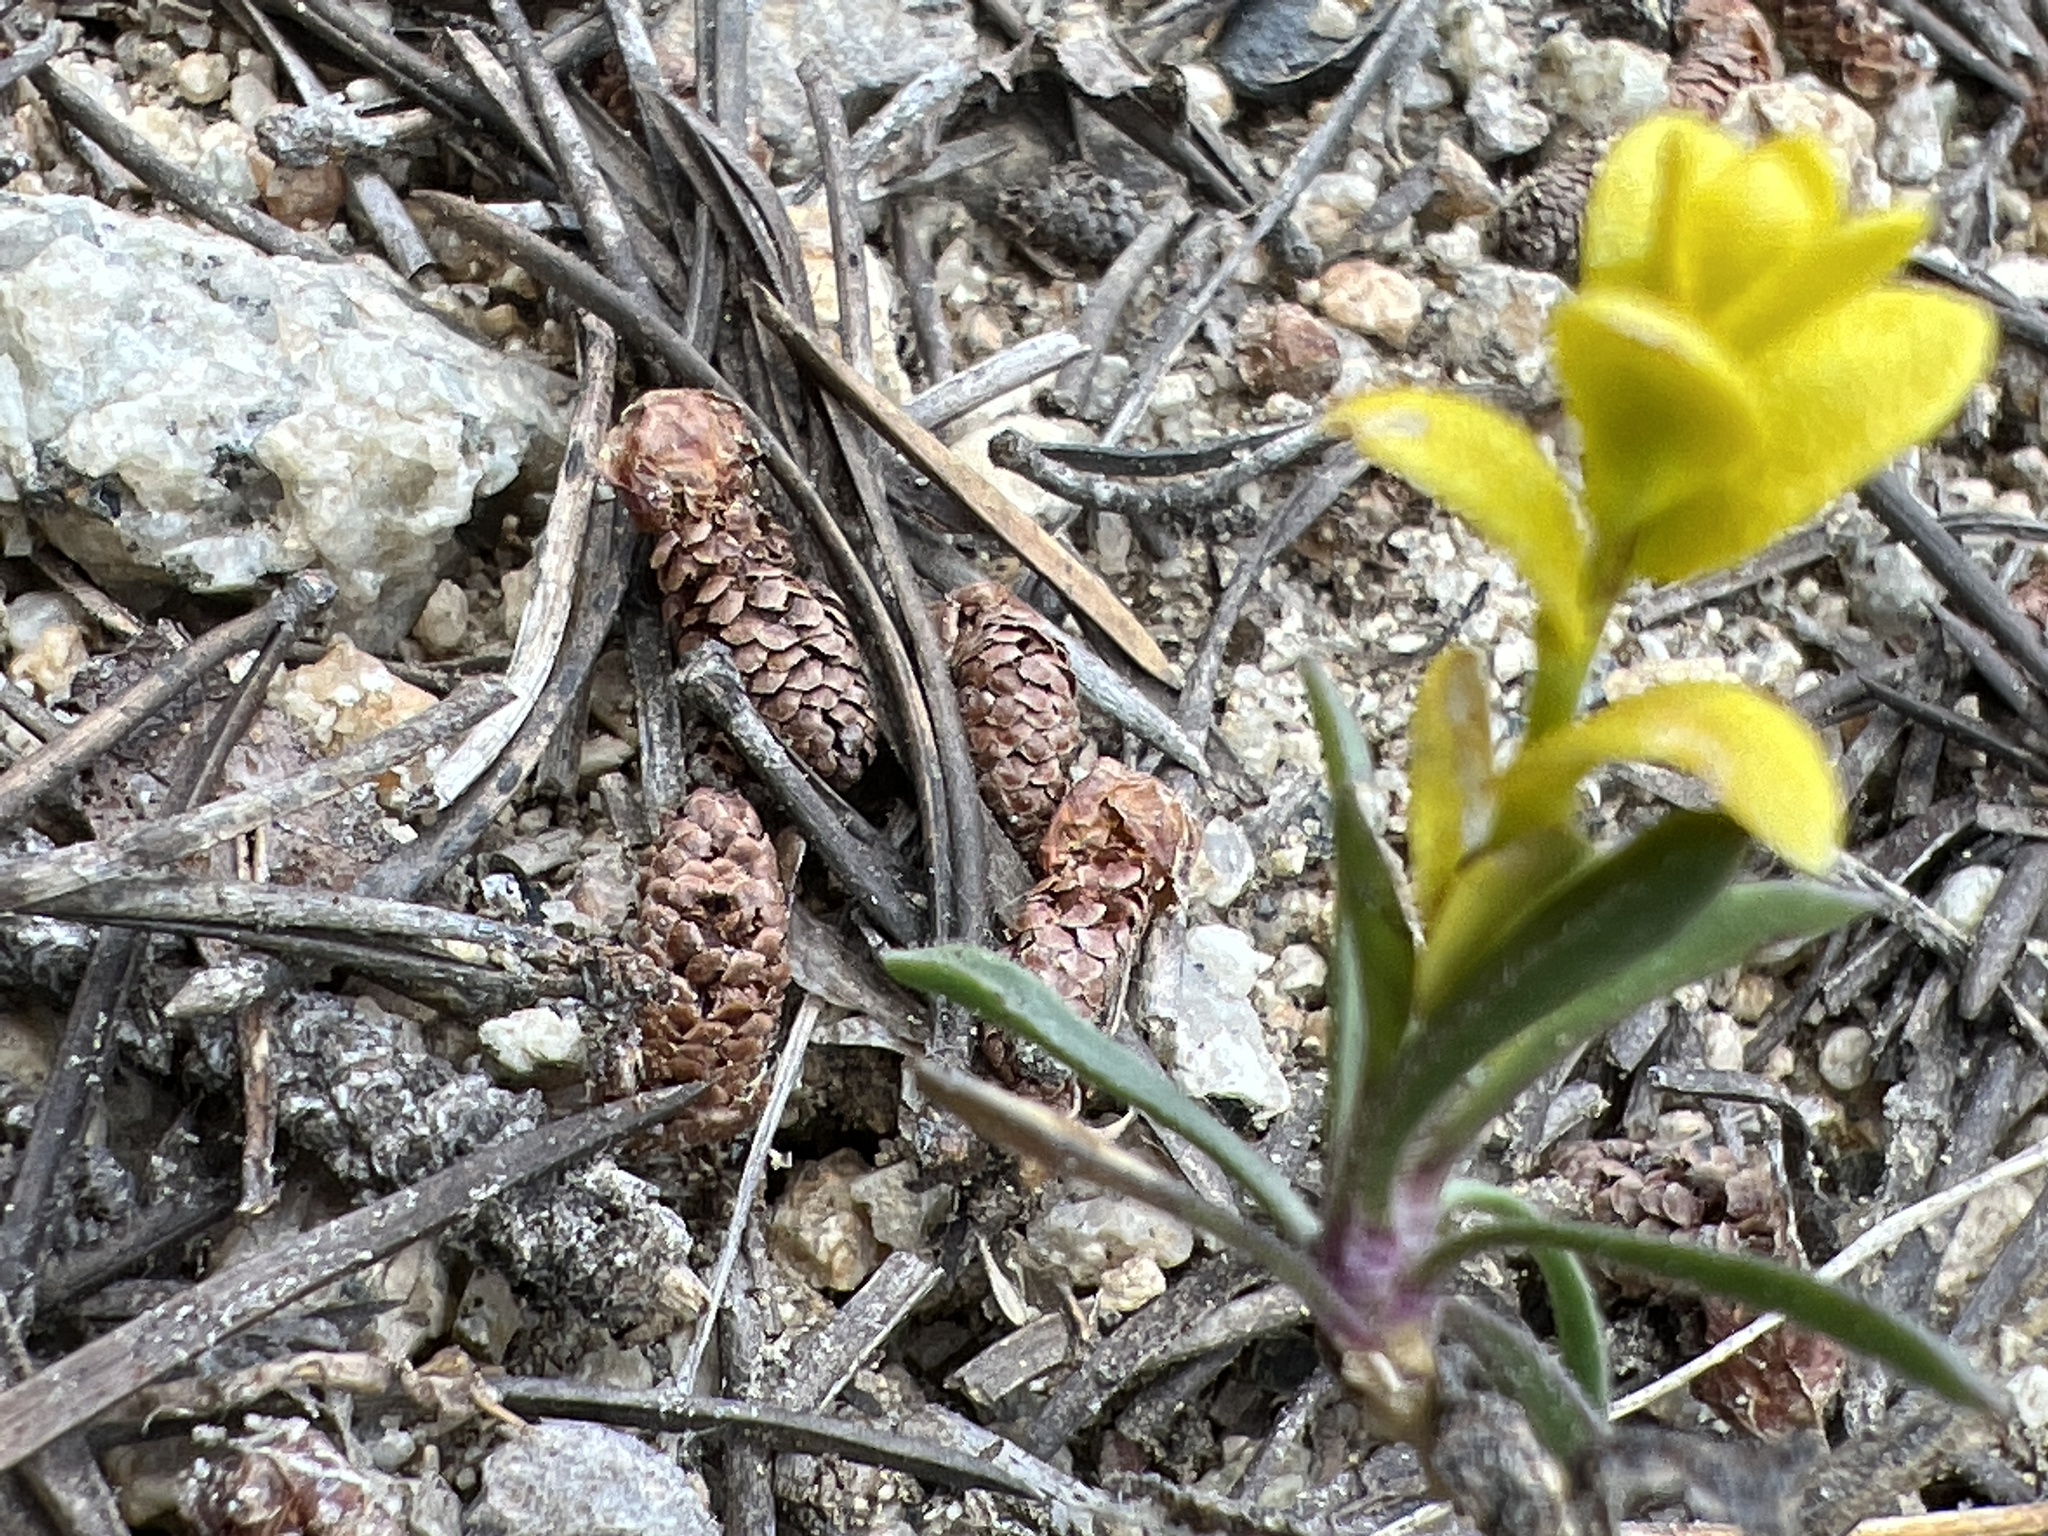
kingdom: Fungi
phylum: Basidiomycota
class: Pucciniomycetes
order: Pucciniales
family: Pucciniaceae
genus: Puccinia
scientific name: Puccinia monoica
